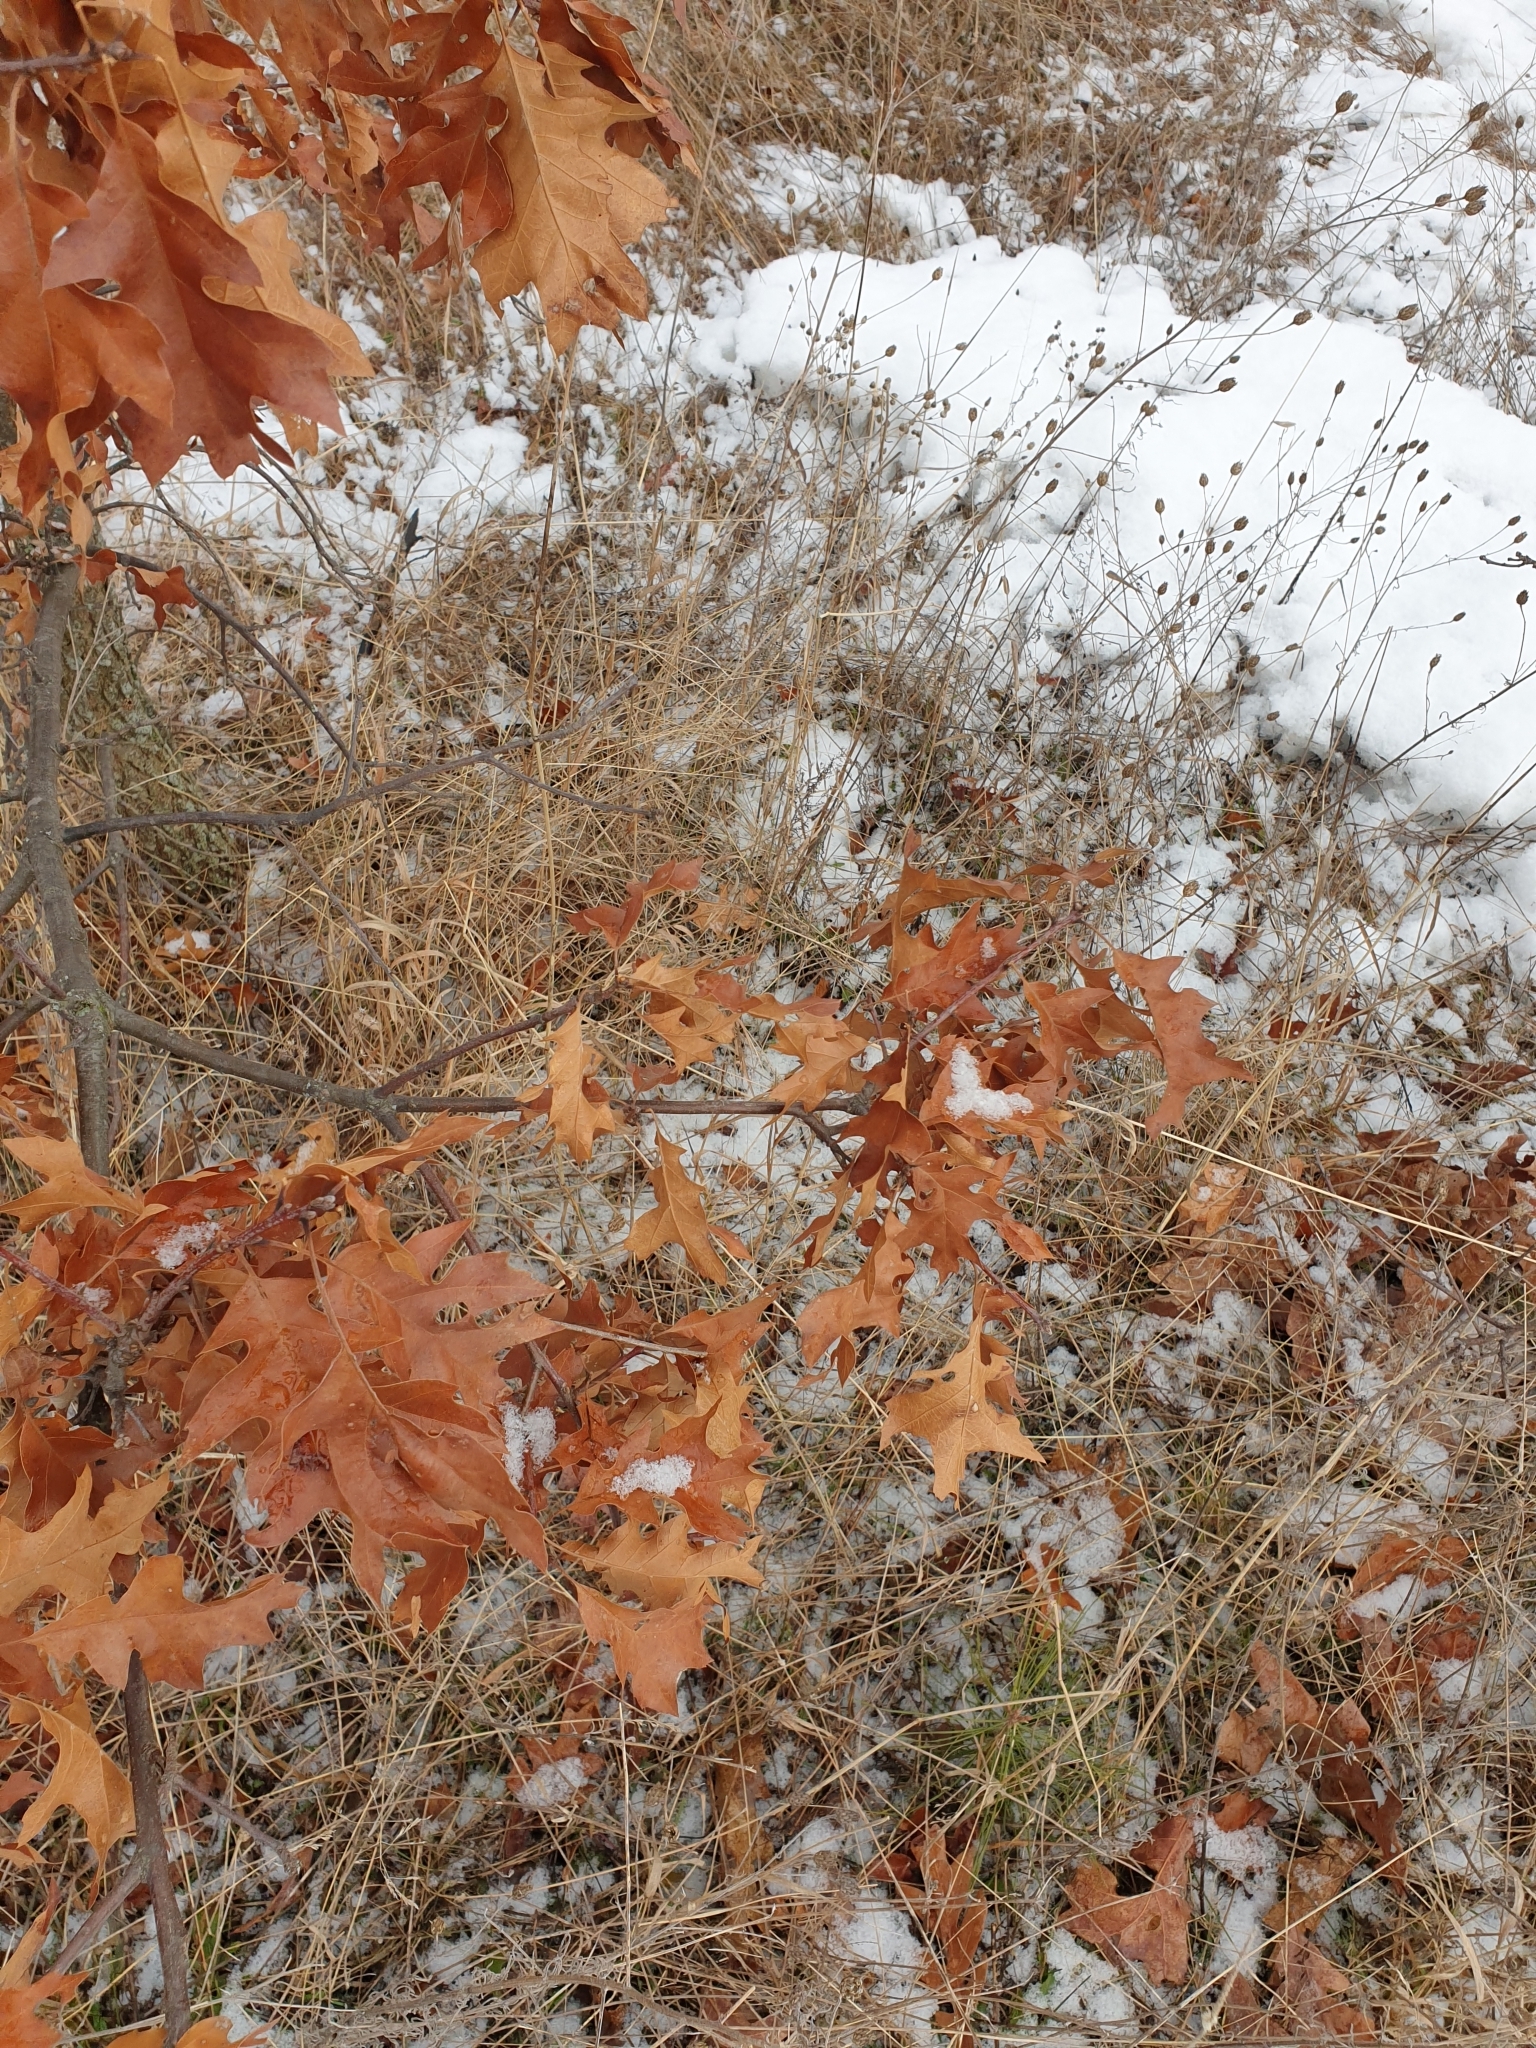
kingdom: Plantae
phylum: Tracheophyta
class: Magnoliopsida
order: Fagales
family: Fagaceae
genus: Quercus
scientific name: Quercus rubra
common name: Red oak
